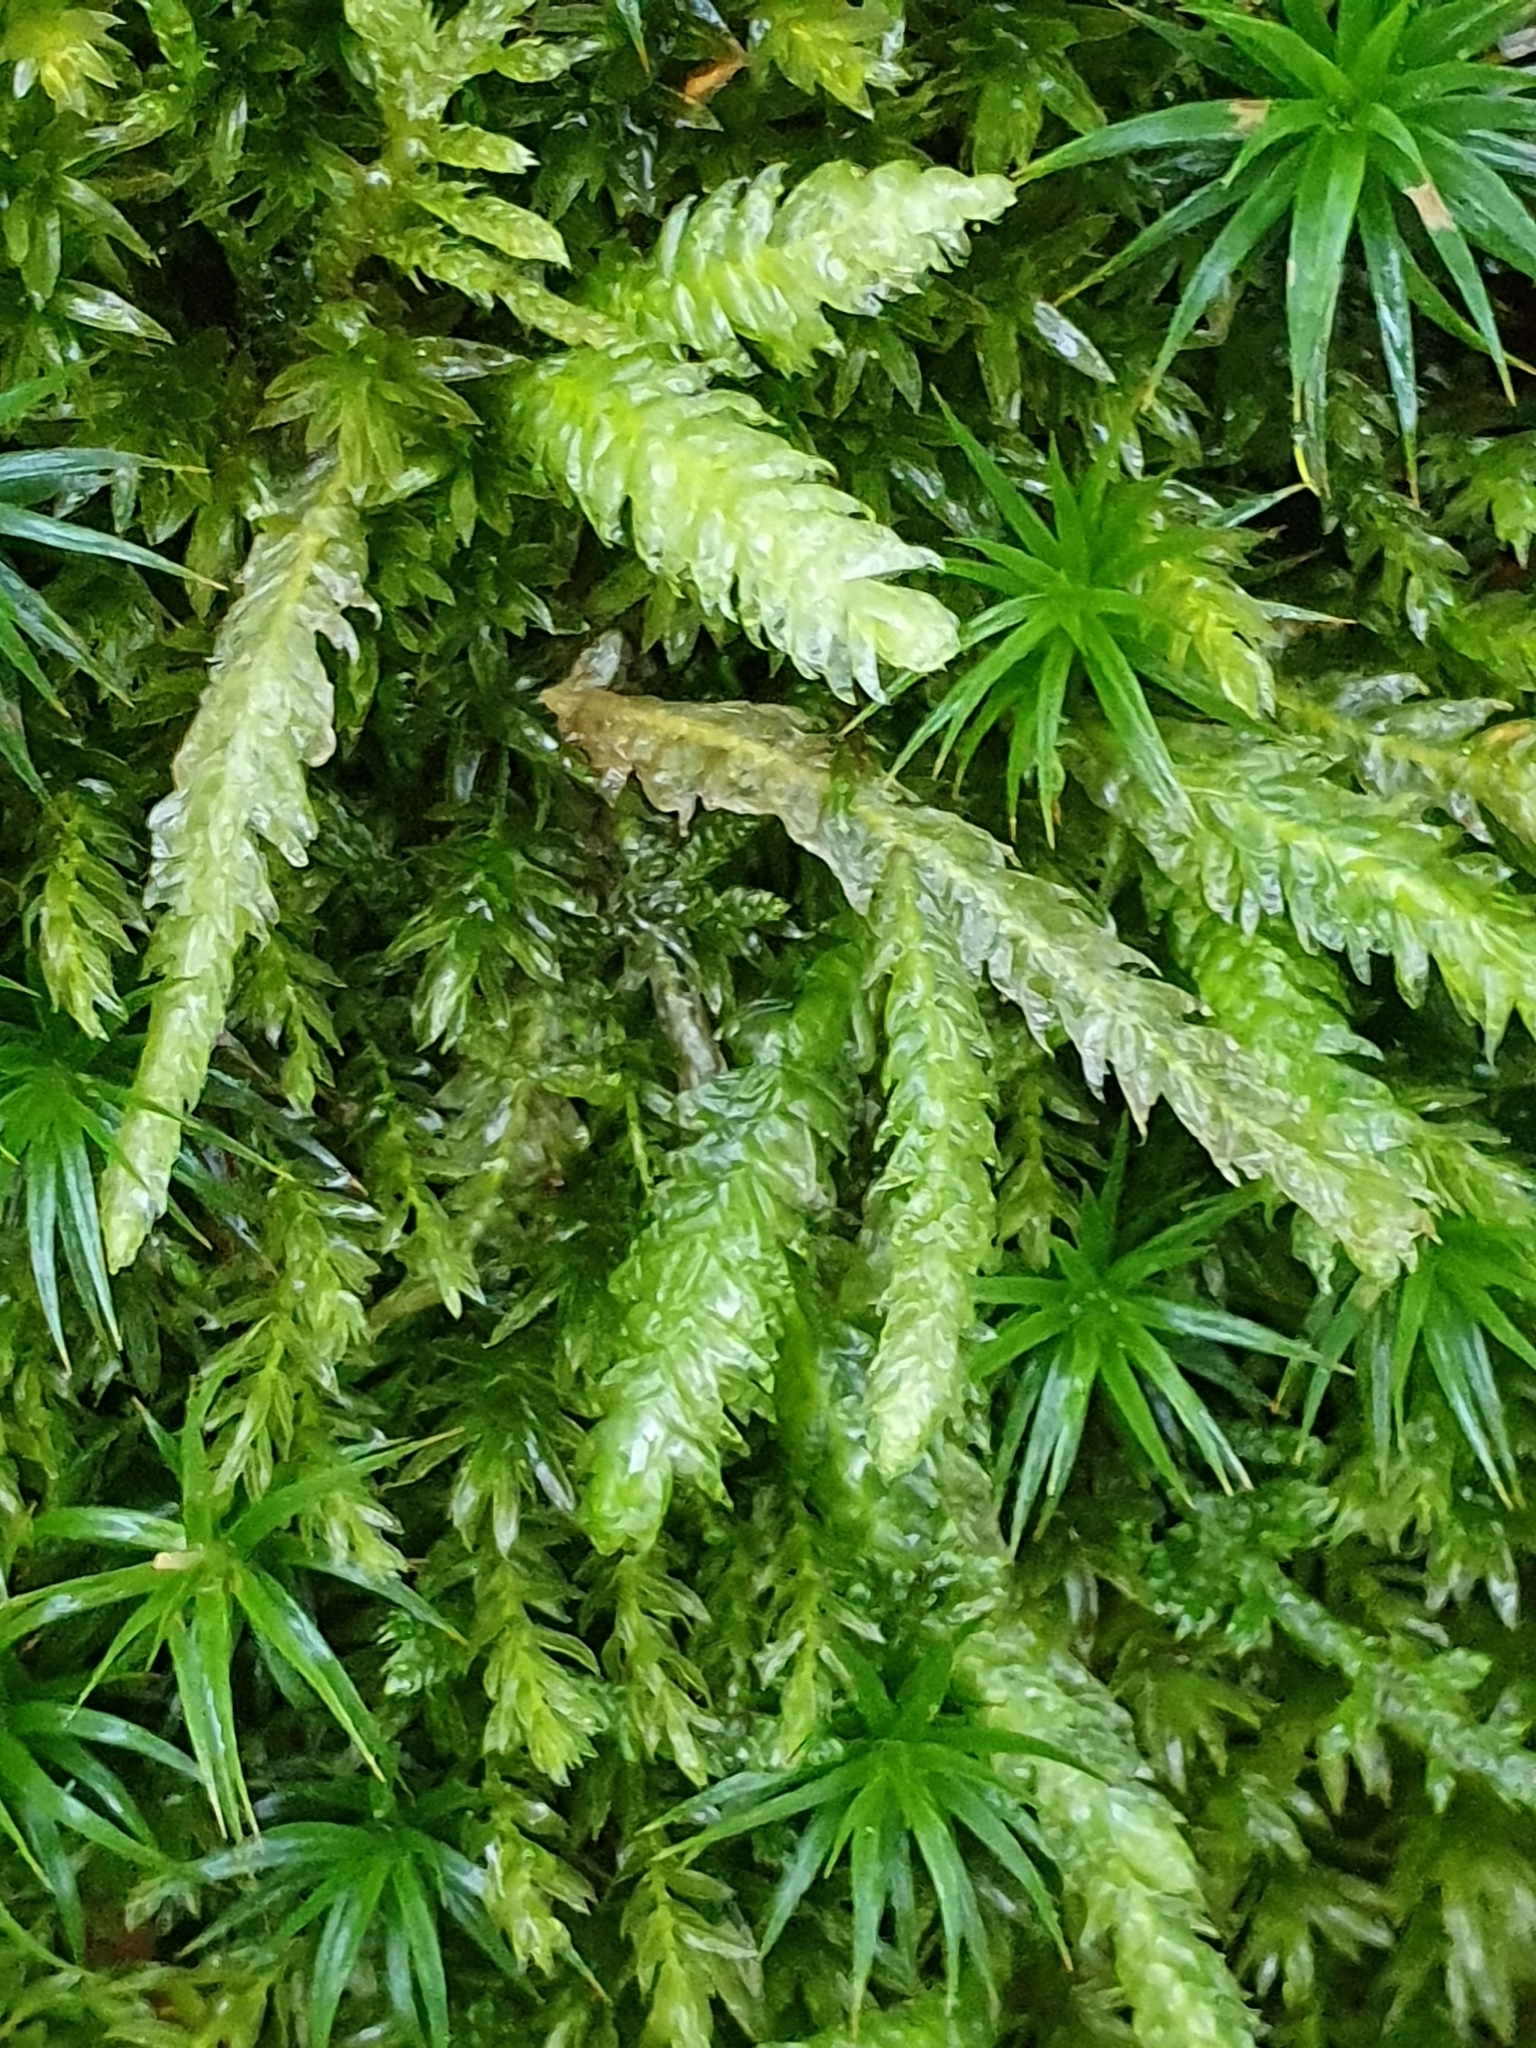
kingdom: Plantae
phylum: Bryophyta
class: Bryopsida
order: Hypnales
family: Plagiotheciaceae
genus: Plagiothecium
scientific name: Plagiothecium undulatum
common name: Waved silk-moss
